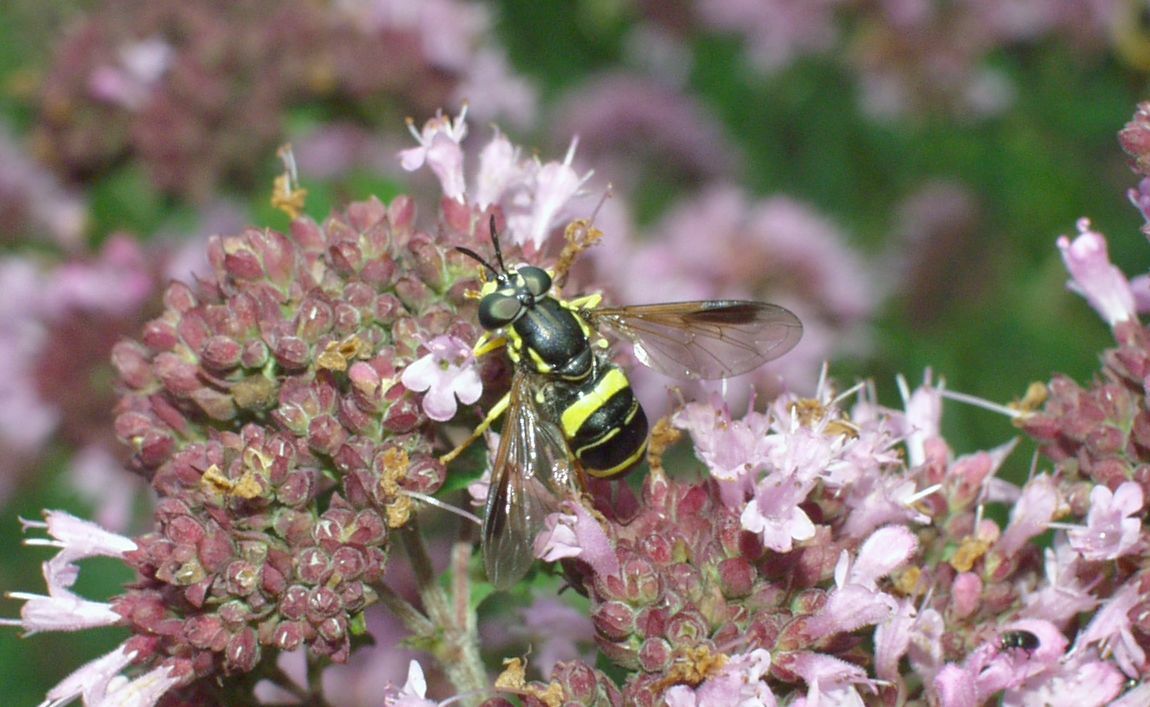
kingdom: Animalia
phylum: Arthropoda
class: Insecta
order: Diptera
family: Syrphidae
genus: Chrysotoxum
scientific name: Chrysotoxum bicincta
